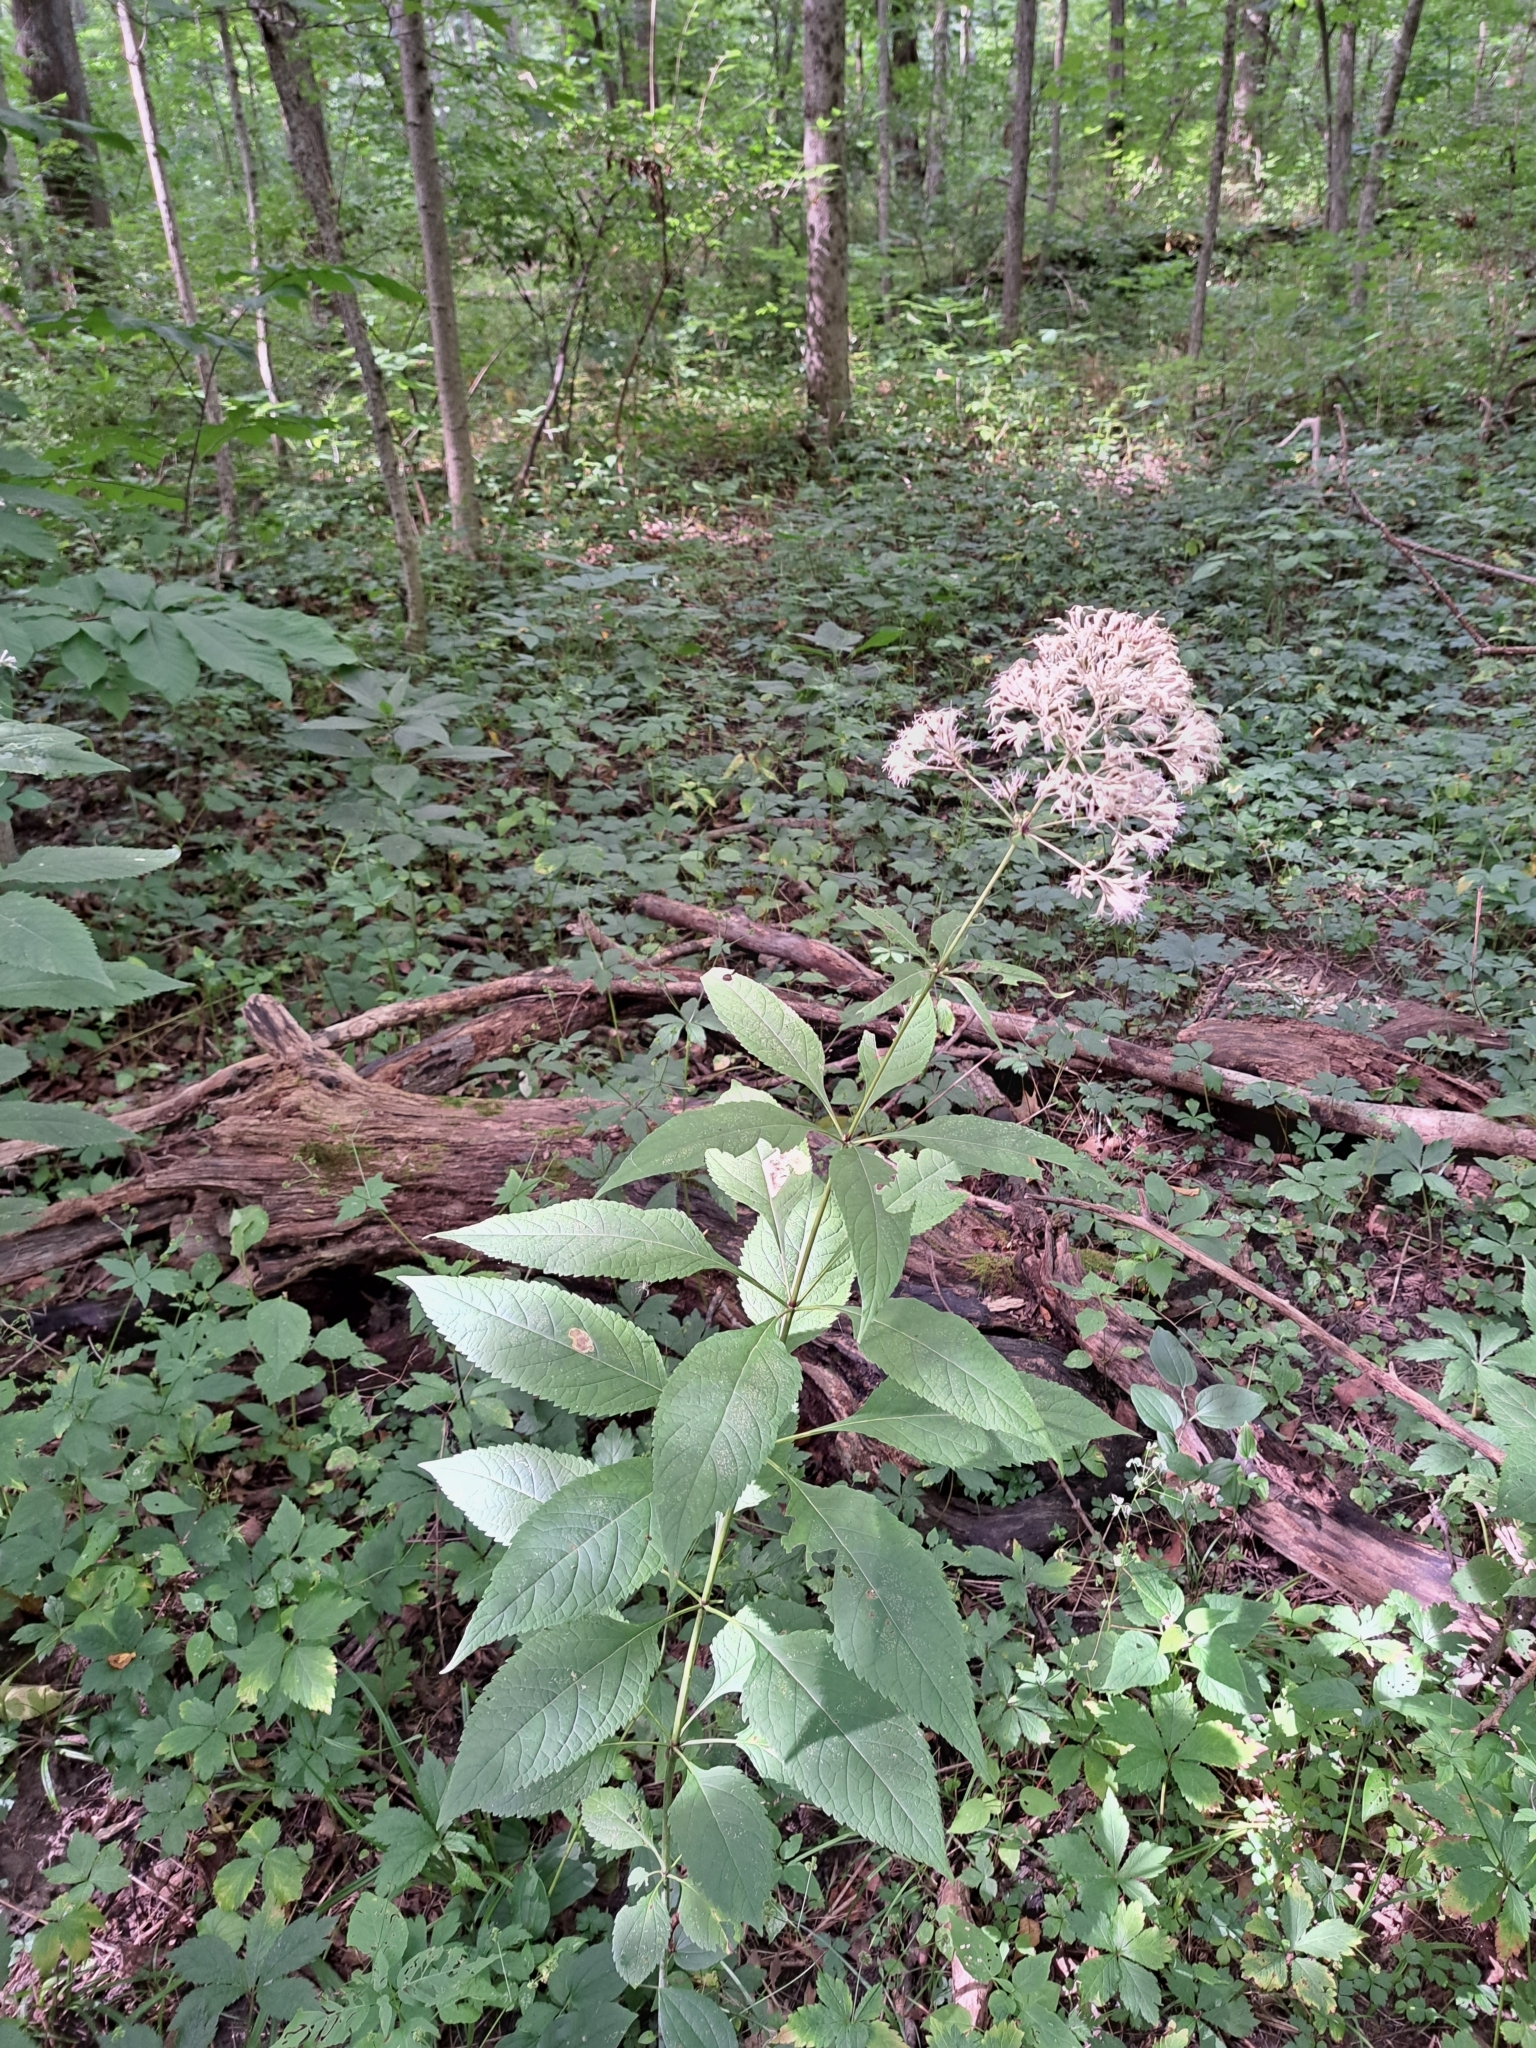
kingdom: Plantae
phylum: Tracheophyta
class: Magnoliopsida
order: Asterales
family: Asteraceae
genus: Eutrochium
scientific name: Eutrochium purpureum
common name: Gravelroot
